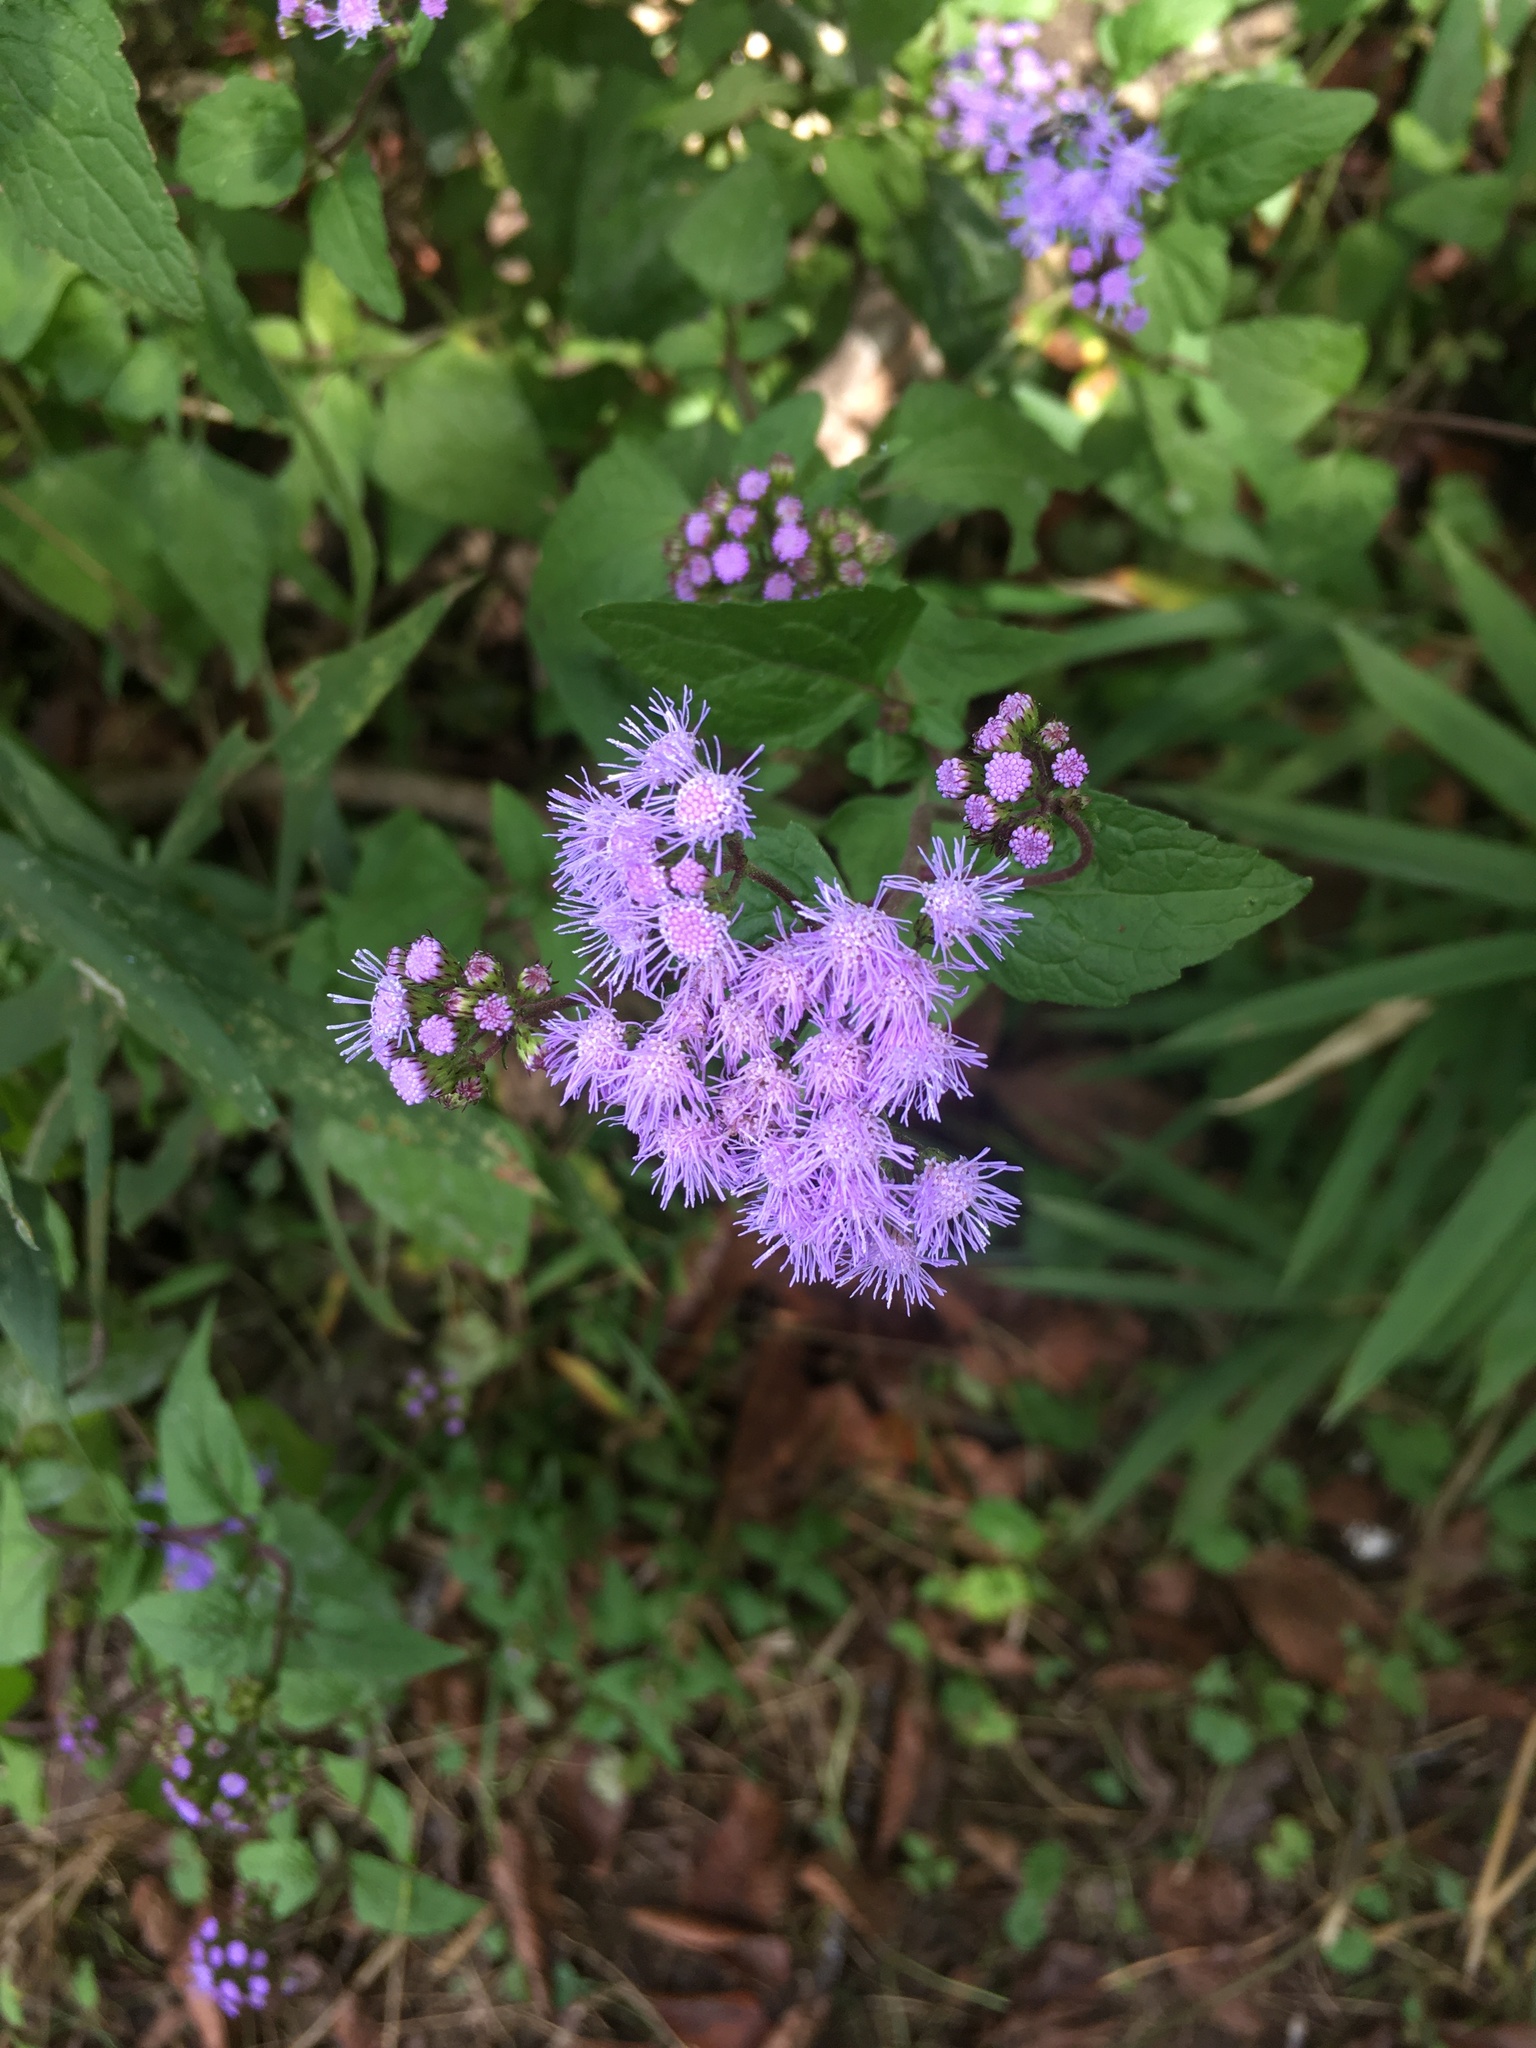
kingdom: Plantae
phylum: Tracheophyta
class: Magnoliopsida
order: Asterales
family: Asteraceae
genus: Conoclinium
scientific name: Conoclinium coelestinum
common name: Blue mistflower
